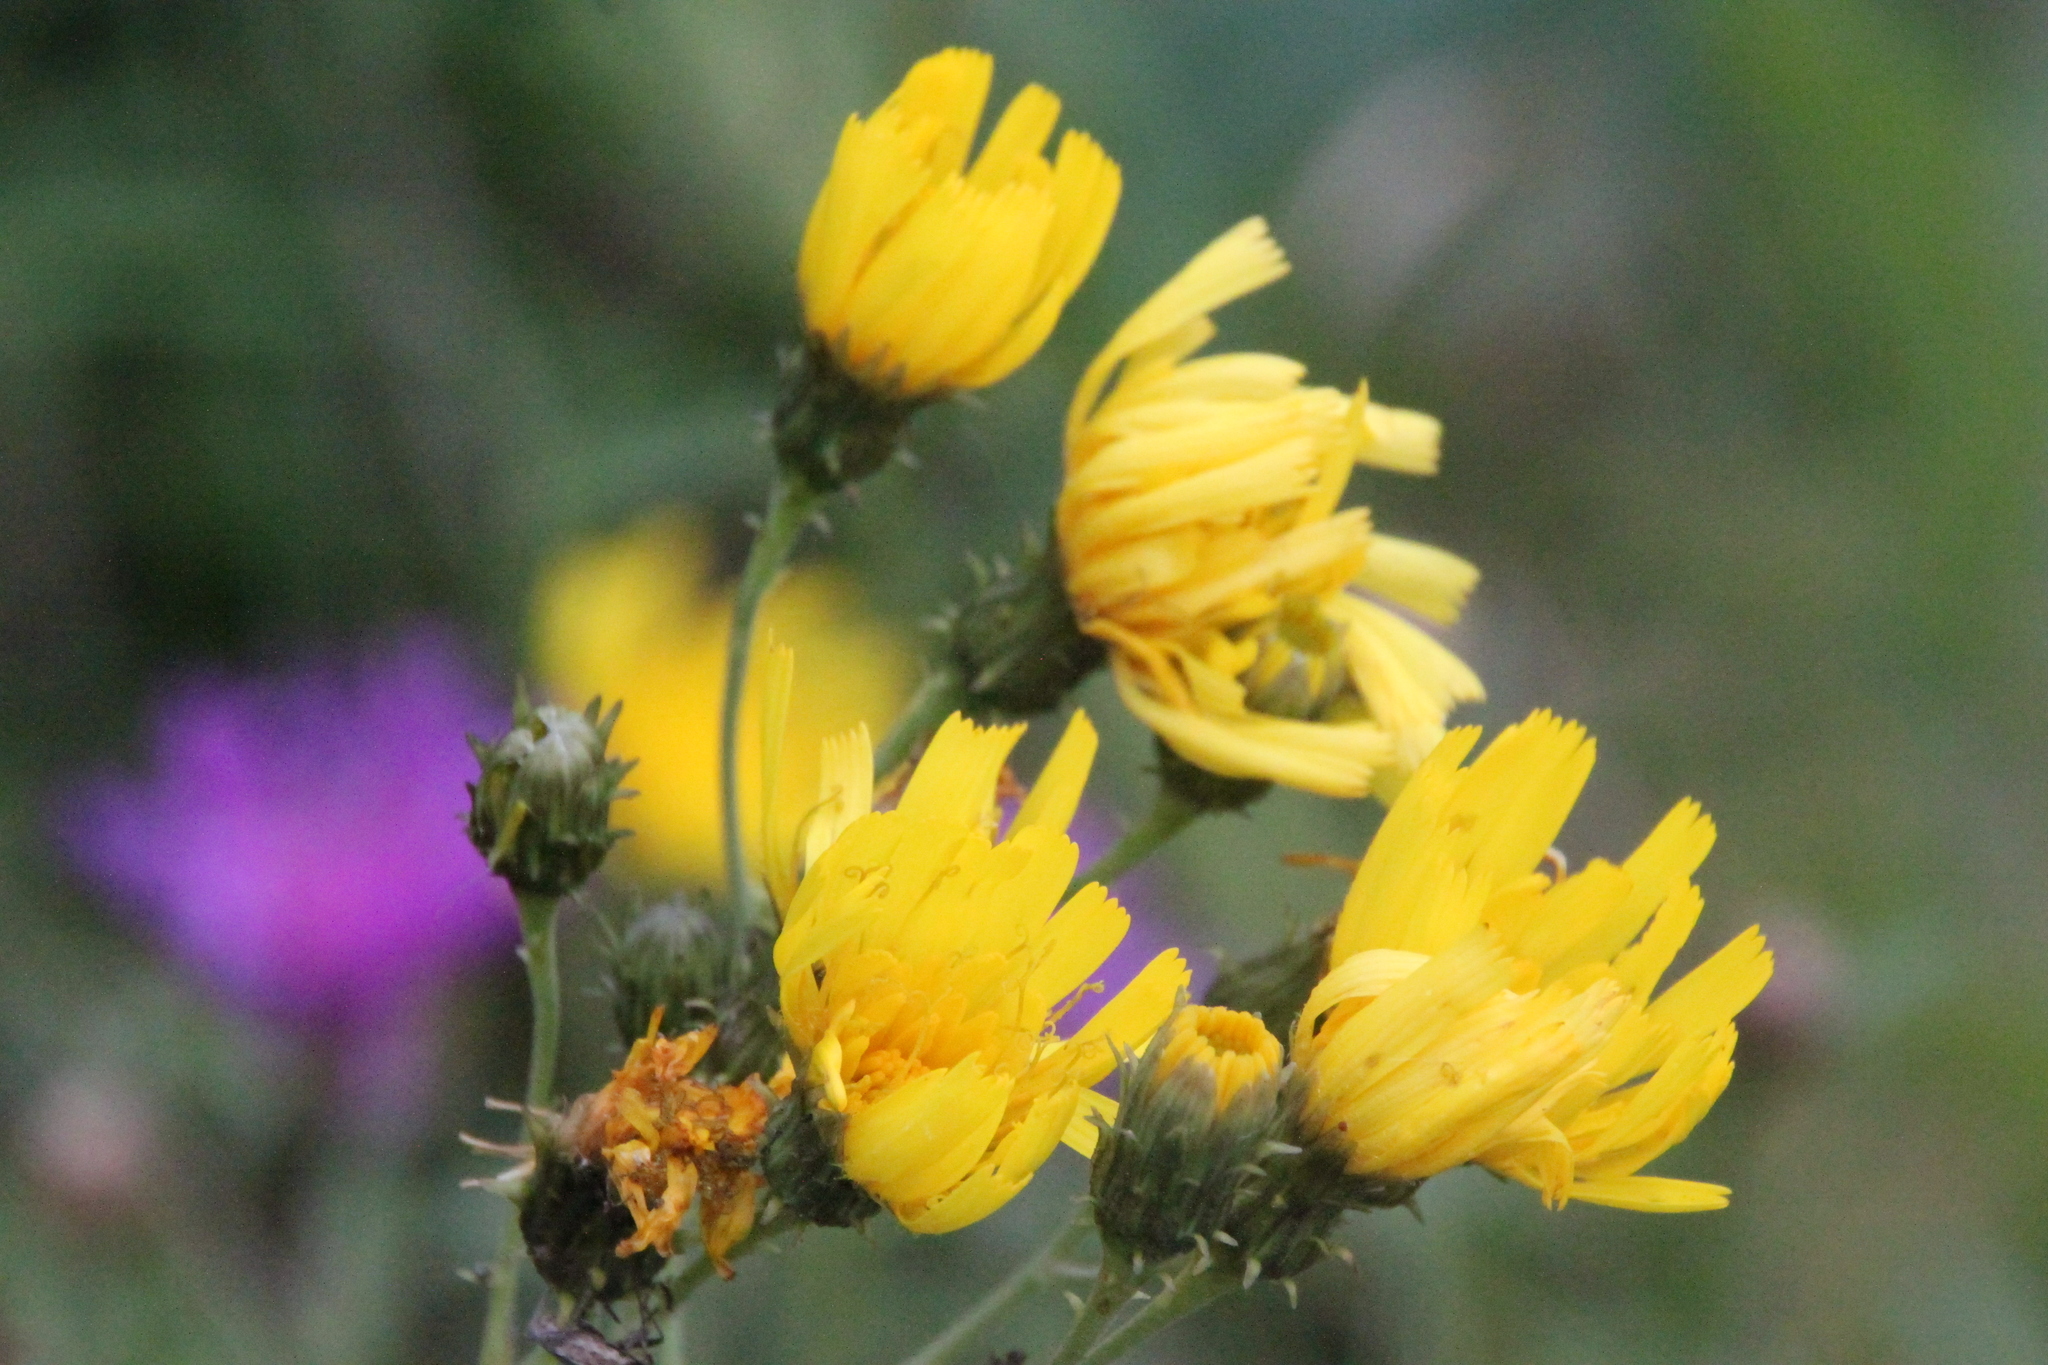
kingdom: Plantae
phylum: Tracheophyta
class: Magnoliopsida
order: Asterales
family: Asteraceae
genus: Hieracium
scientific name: Hieracium umbellatum
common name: Northern hawkweed
